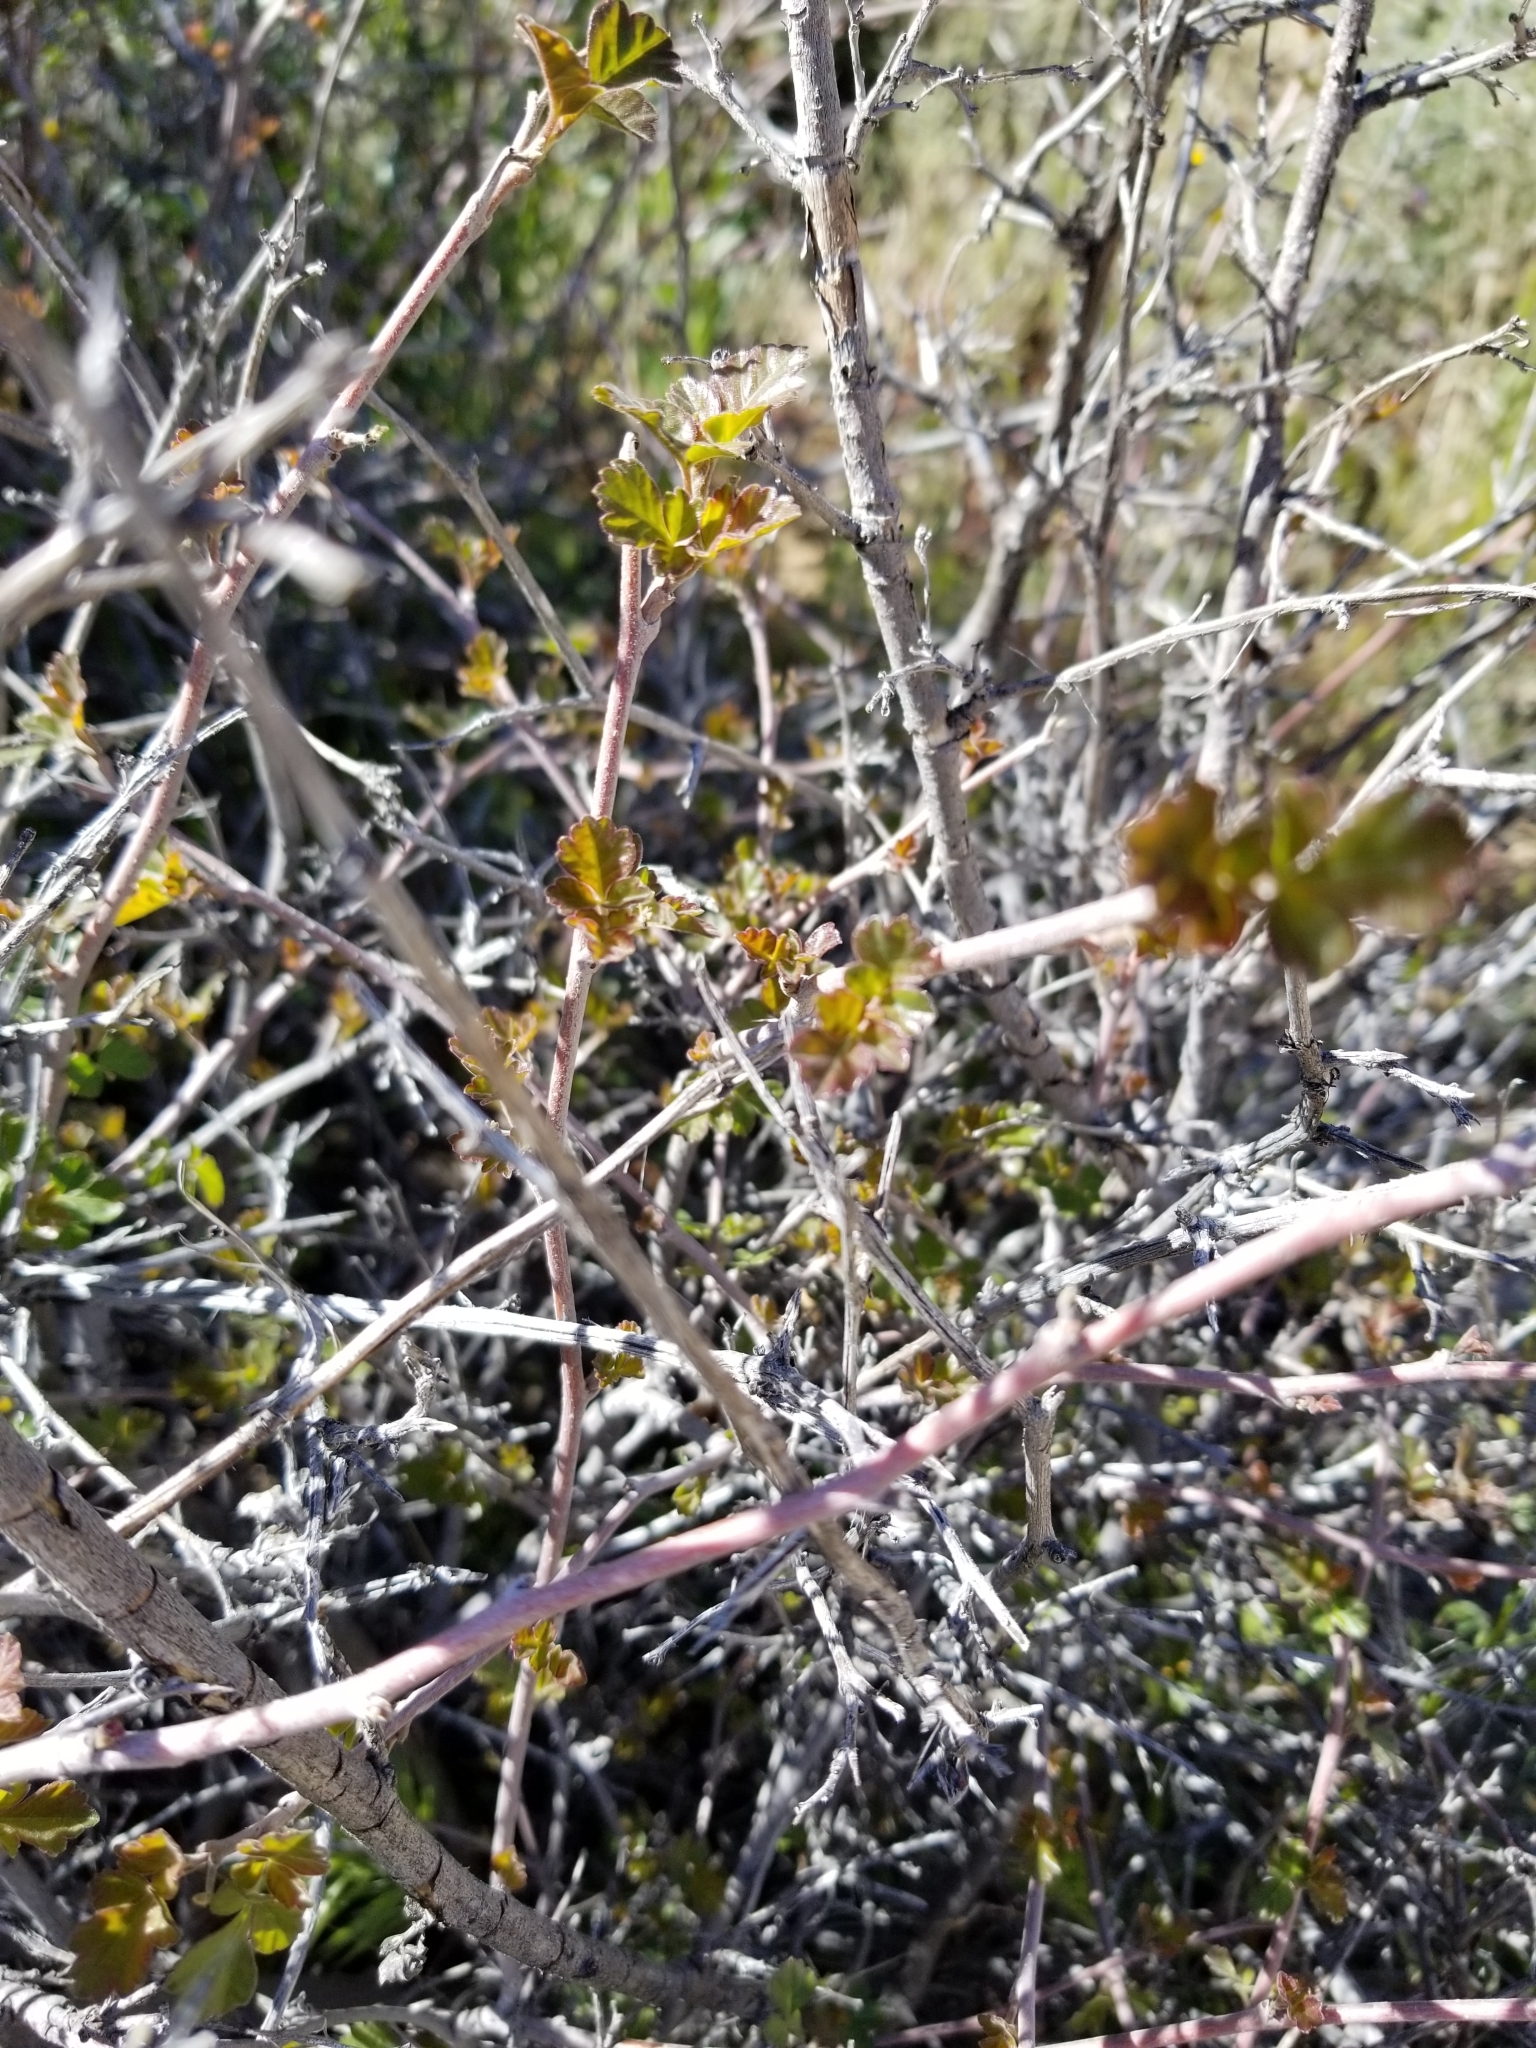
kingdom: Plantae
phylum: Tracheophyta
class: Magnoliopsida
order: Sapindales
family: Anacardiaceae
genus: Rhus
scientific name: Rhus aromatica
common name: Aromatic sumac
